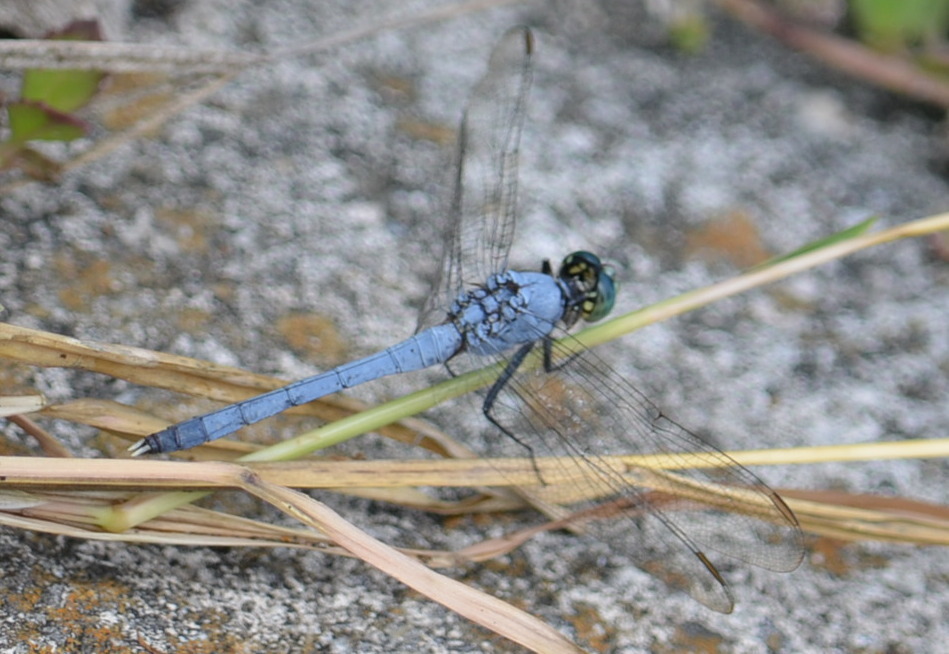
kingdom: Animalia
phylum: Arthropoda
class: Insecta
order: Odonata
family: Libellulidae
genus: Erythemis
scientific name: Erythemis simplicicollis
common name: Eastern pondhawk
